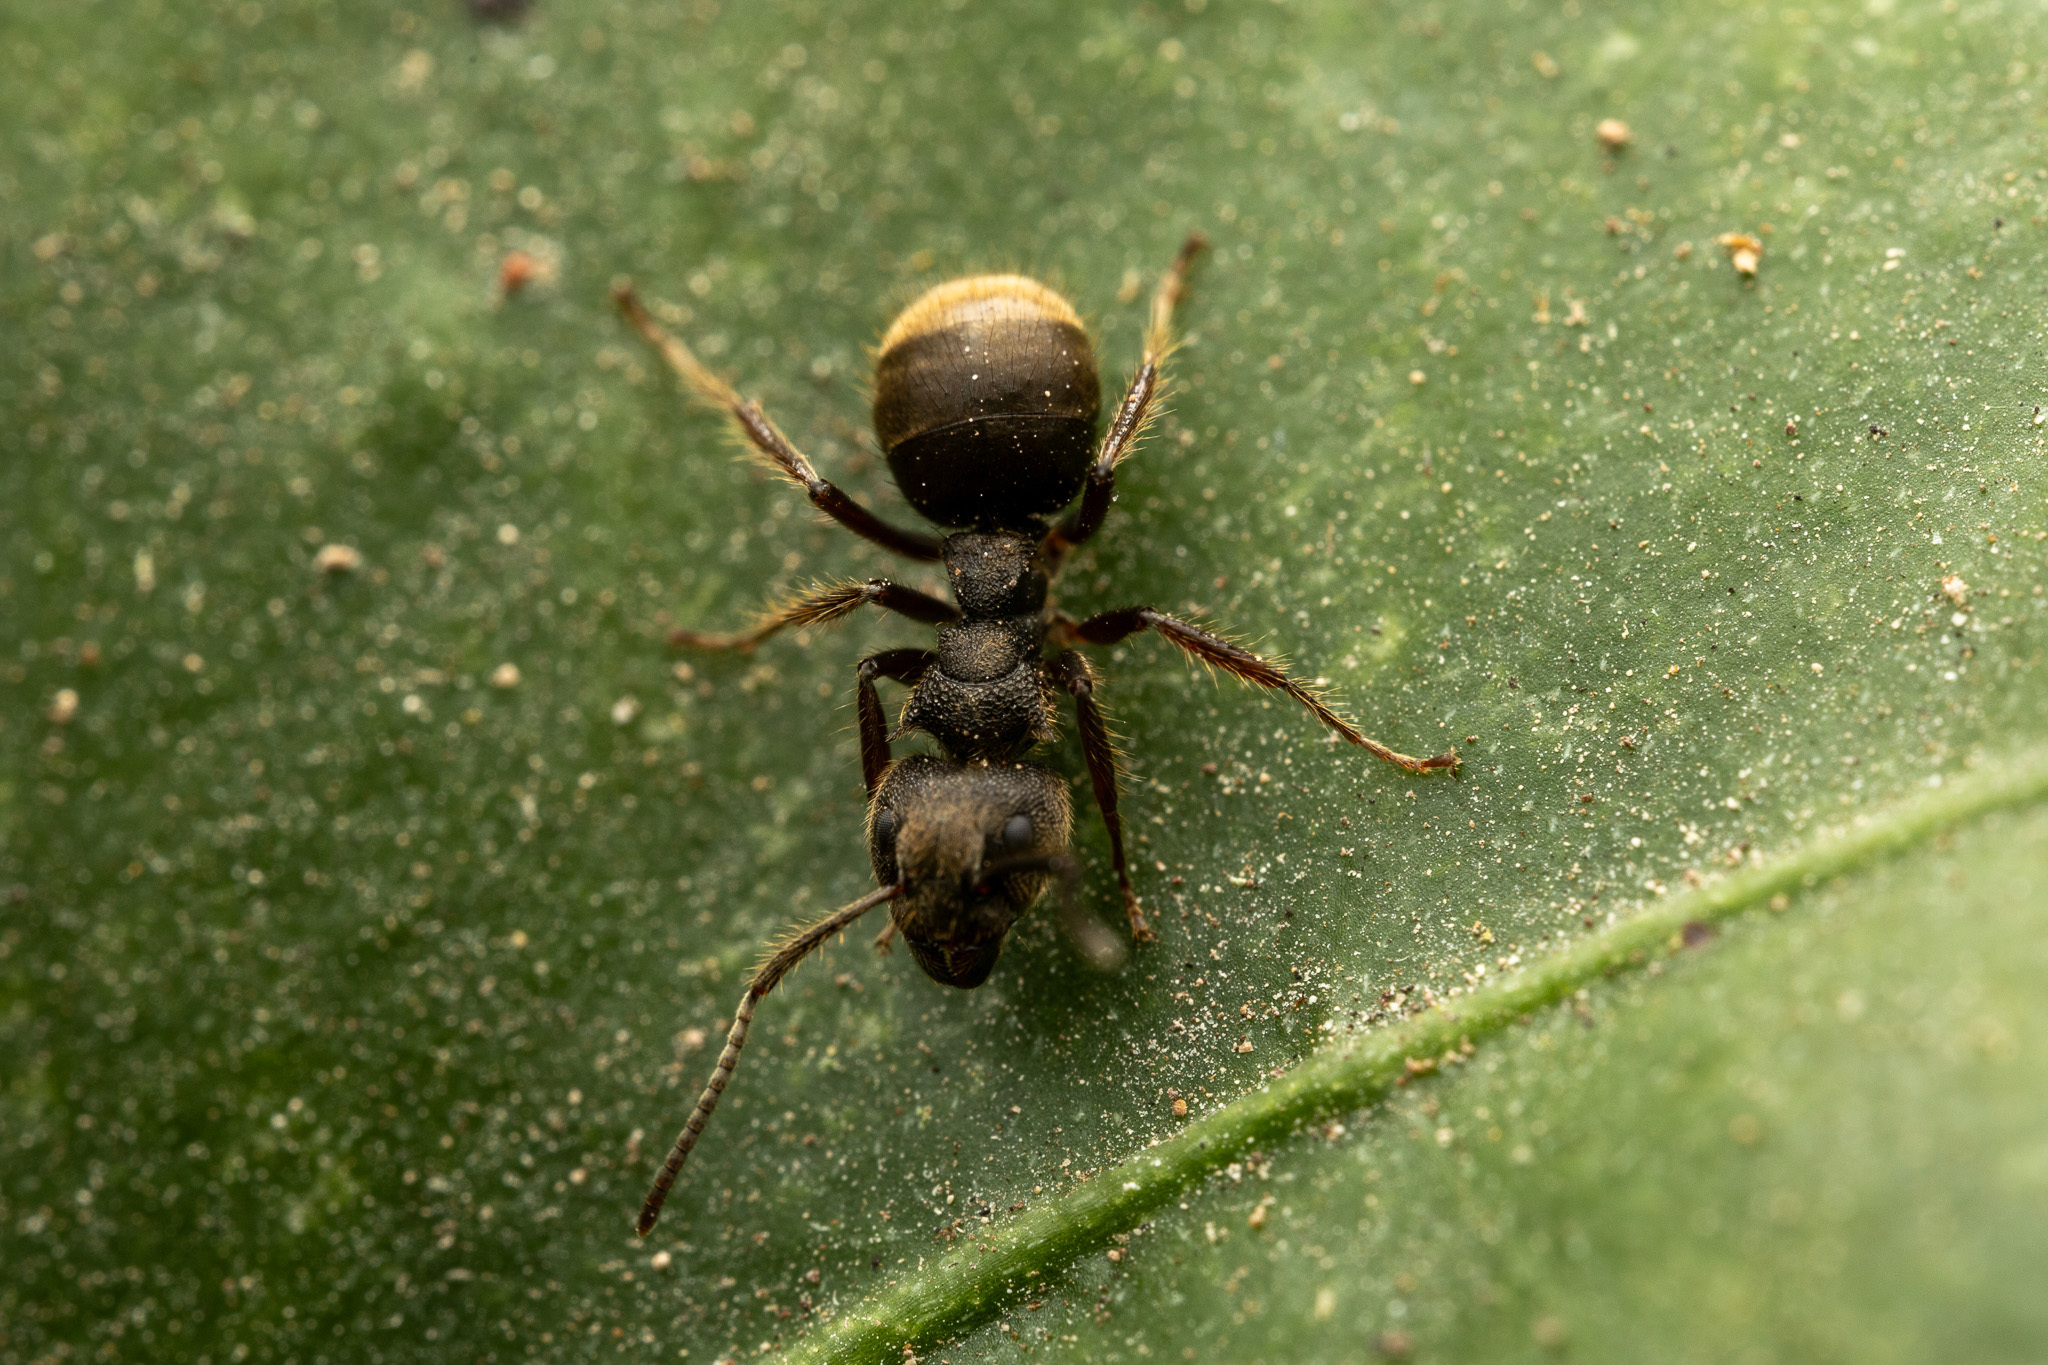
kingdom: Animalia
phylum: Arthropoda
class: Insecta
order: Hymenoptera
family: Formicidae
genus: Dolichoderus
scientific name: Dolichoderus bispinosus
